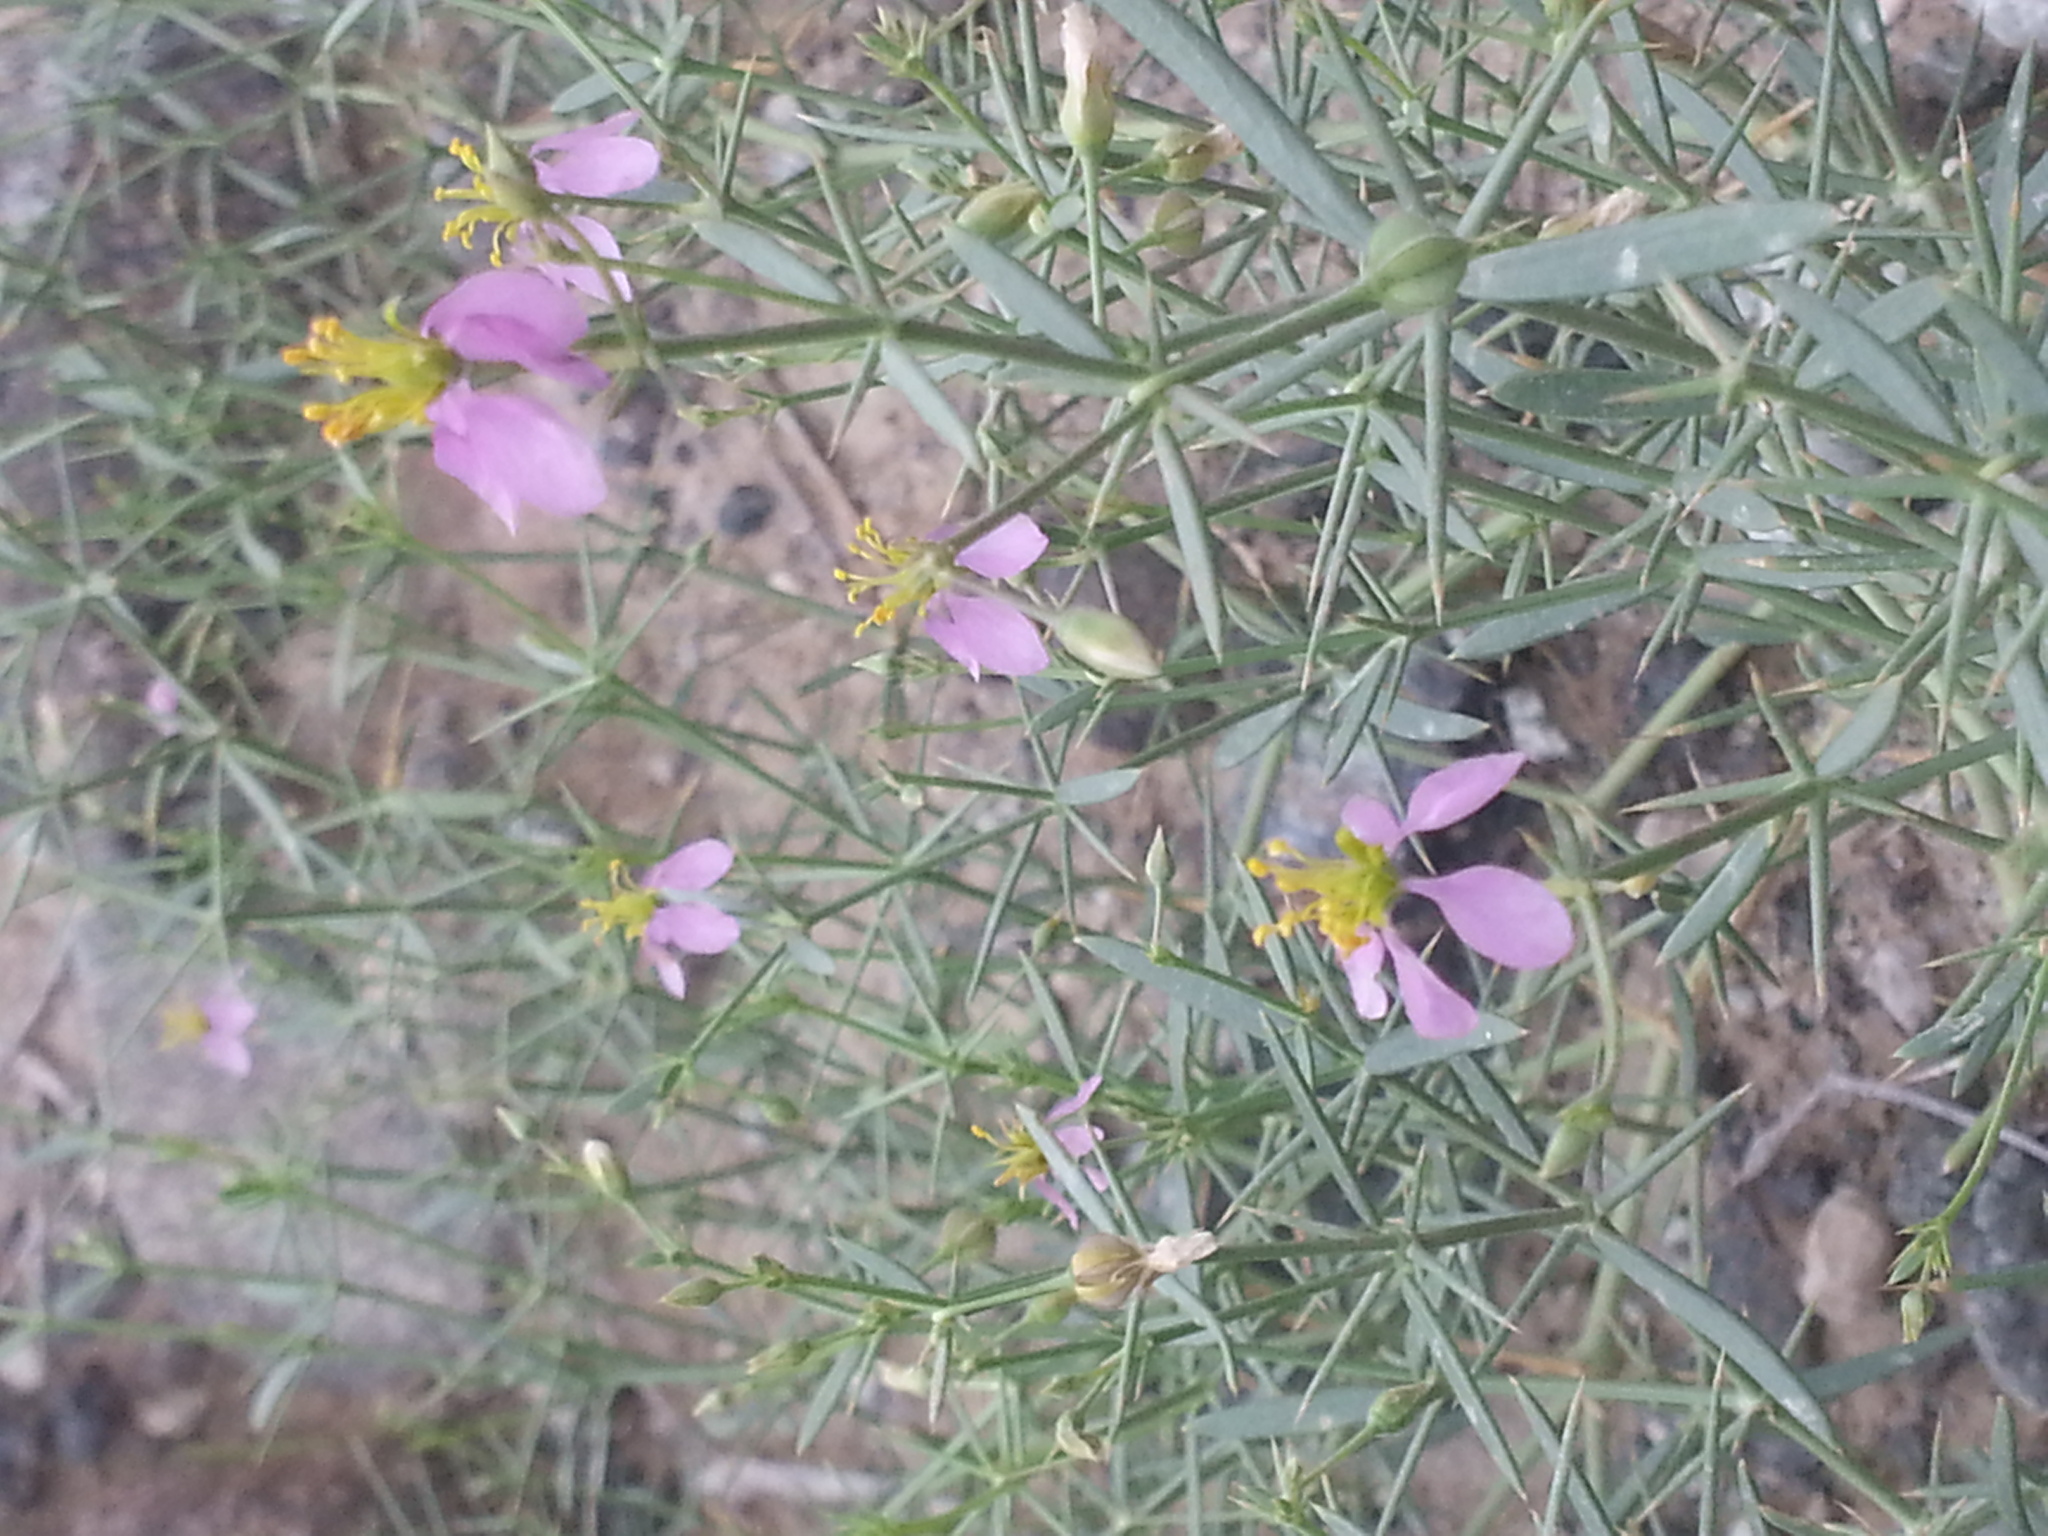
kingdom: Plantae
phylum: Tracheophyta
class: Magnoliopsida
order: Zygophyllales
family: Zygophyllaceae
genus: Fagonia
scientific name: Fagonia indica
